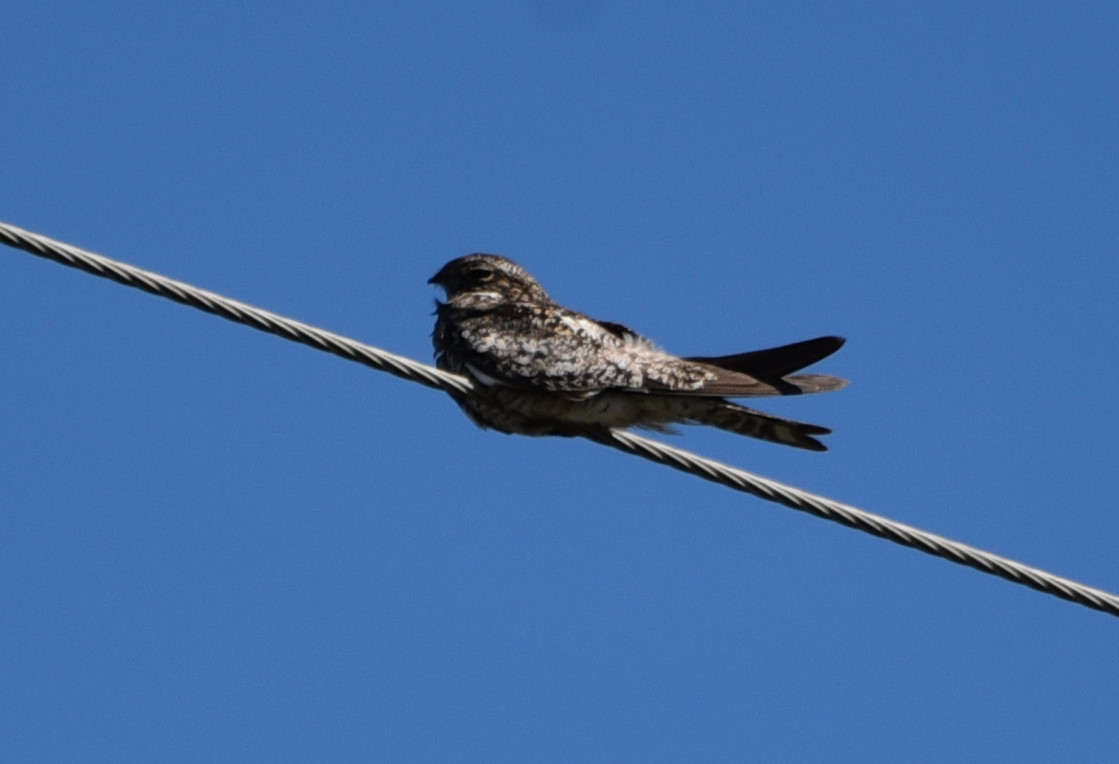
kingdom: Animalia
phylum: Chordata
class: Aves
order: Caprimulgiformes
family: Caprimulgidae
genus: Chordeiles
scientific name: Chordeiles minor
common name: Common nighthawk
